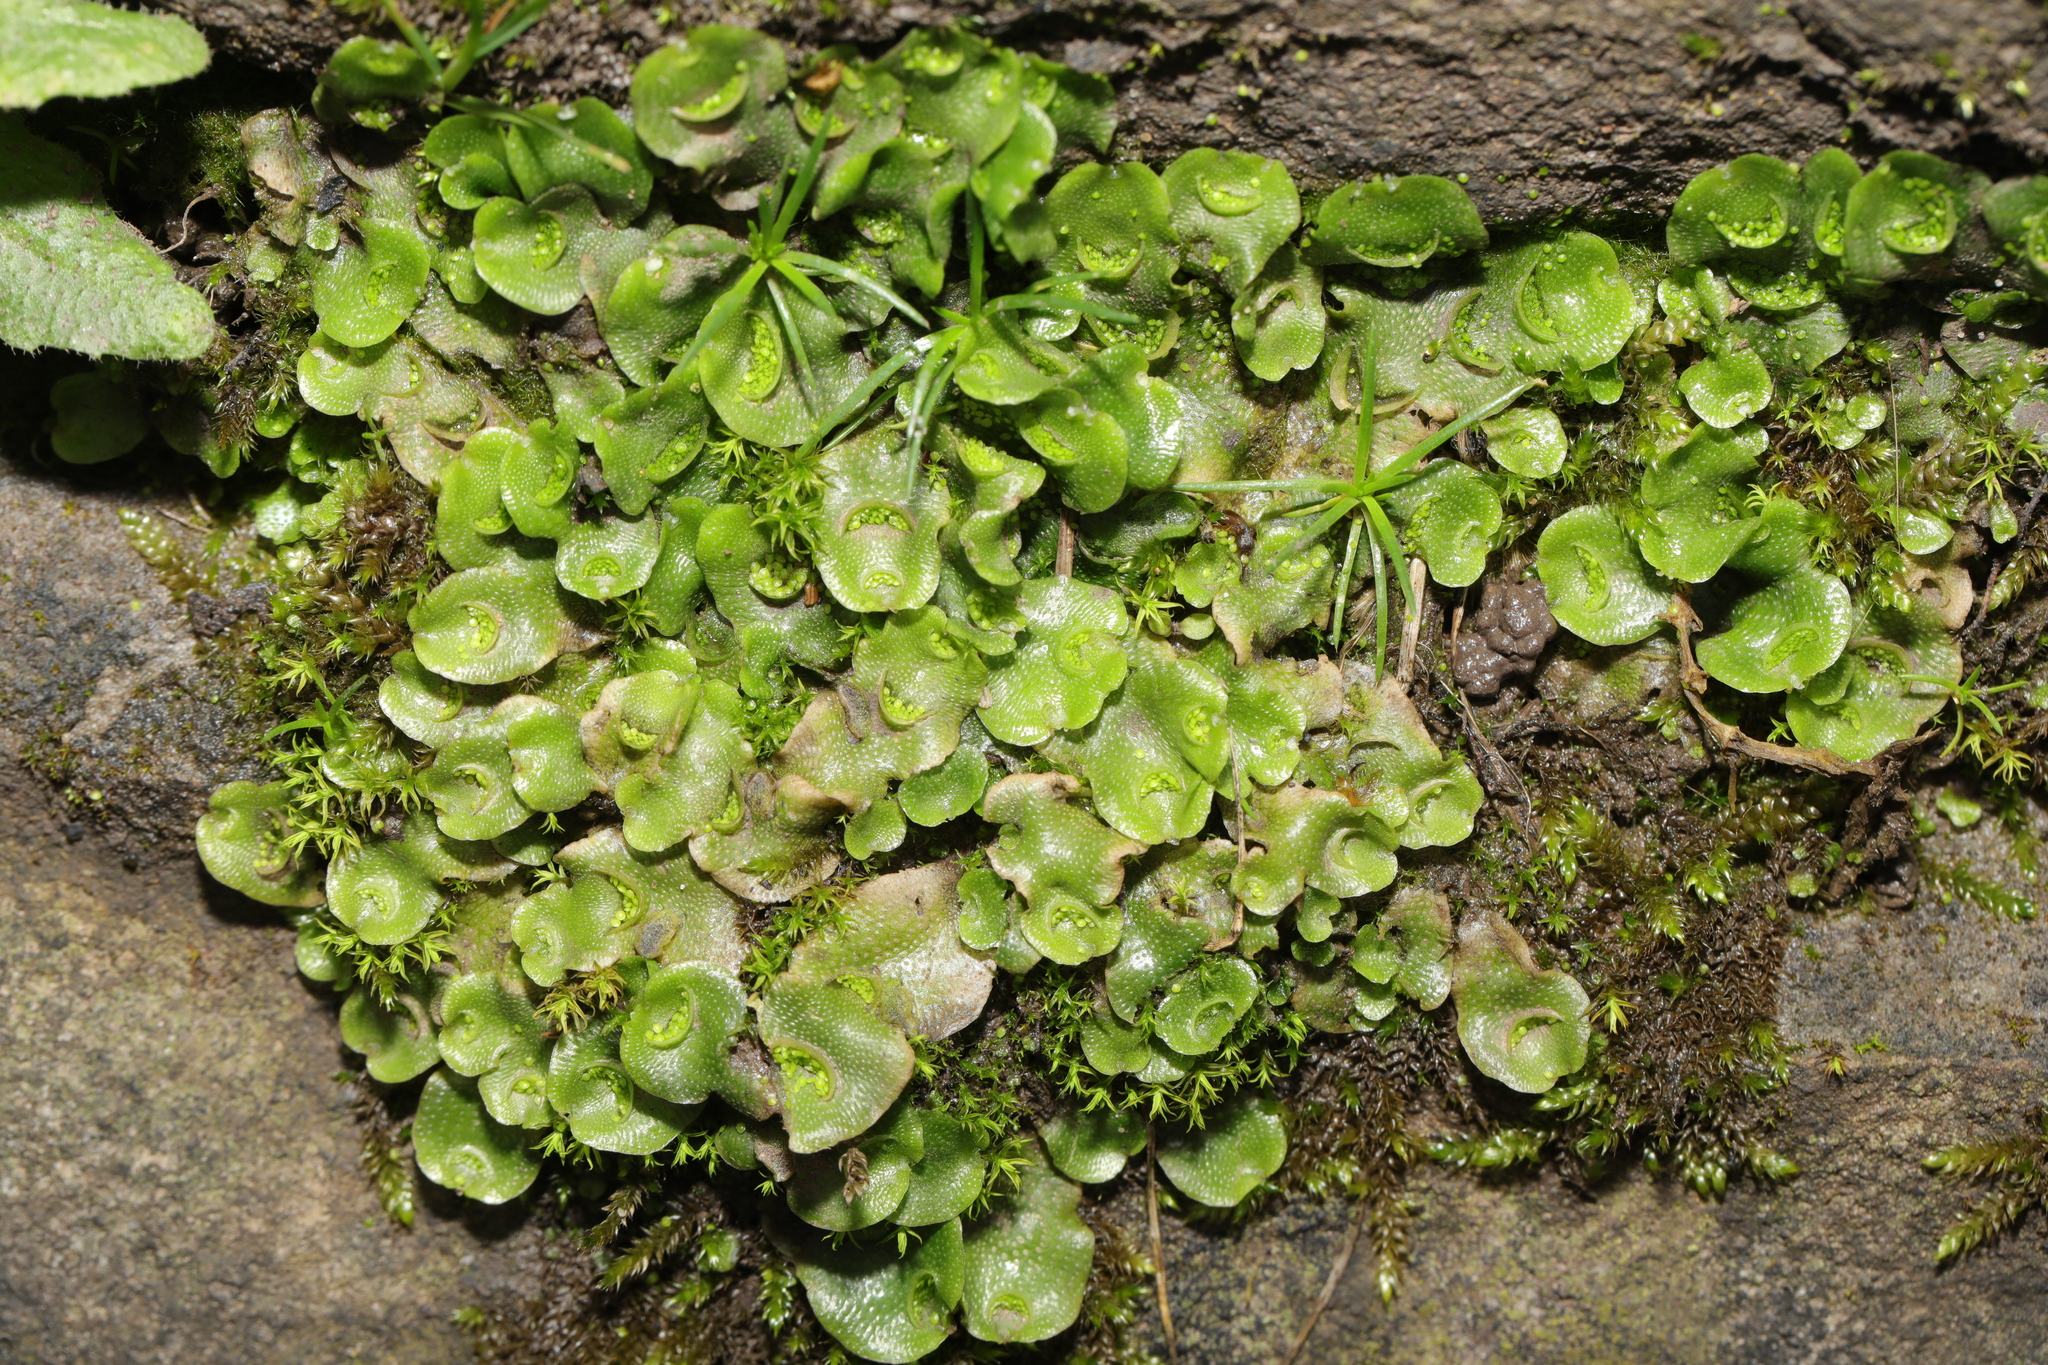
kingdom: Plantae
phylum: Marchantiophyta
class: Marchantiopsida
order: Lunulariales
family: Lunulariaceae
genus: Lunularia
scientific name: Lunularia cruciata
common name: Crescent-cup liverwort
